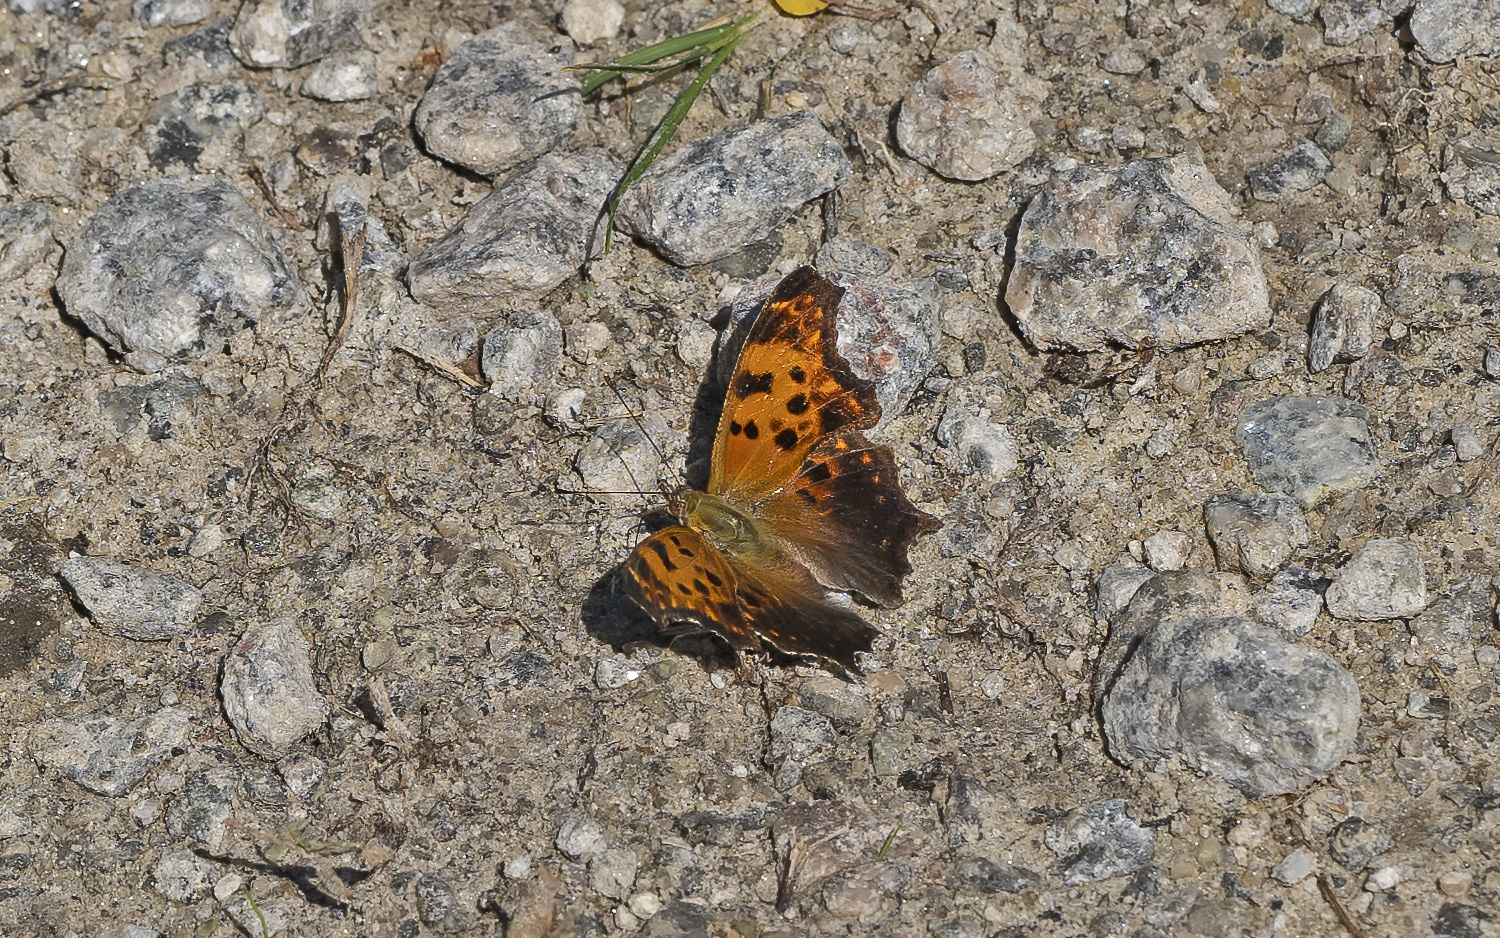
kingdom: Animalia
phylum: Arthropoda
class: Insecta
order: Lepidoptera
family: Nymphalidae
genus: Polygonia
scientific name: Polygonia comma
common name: Eastern comma
